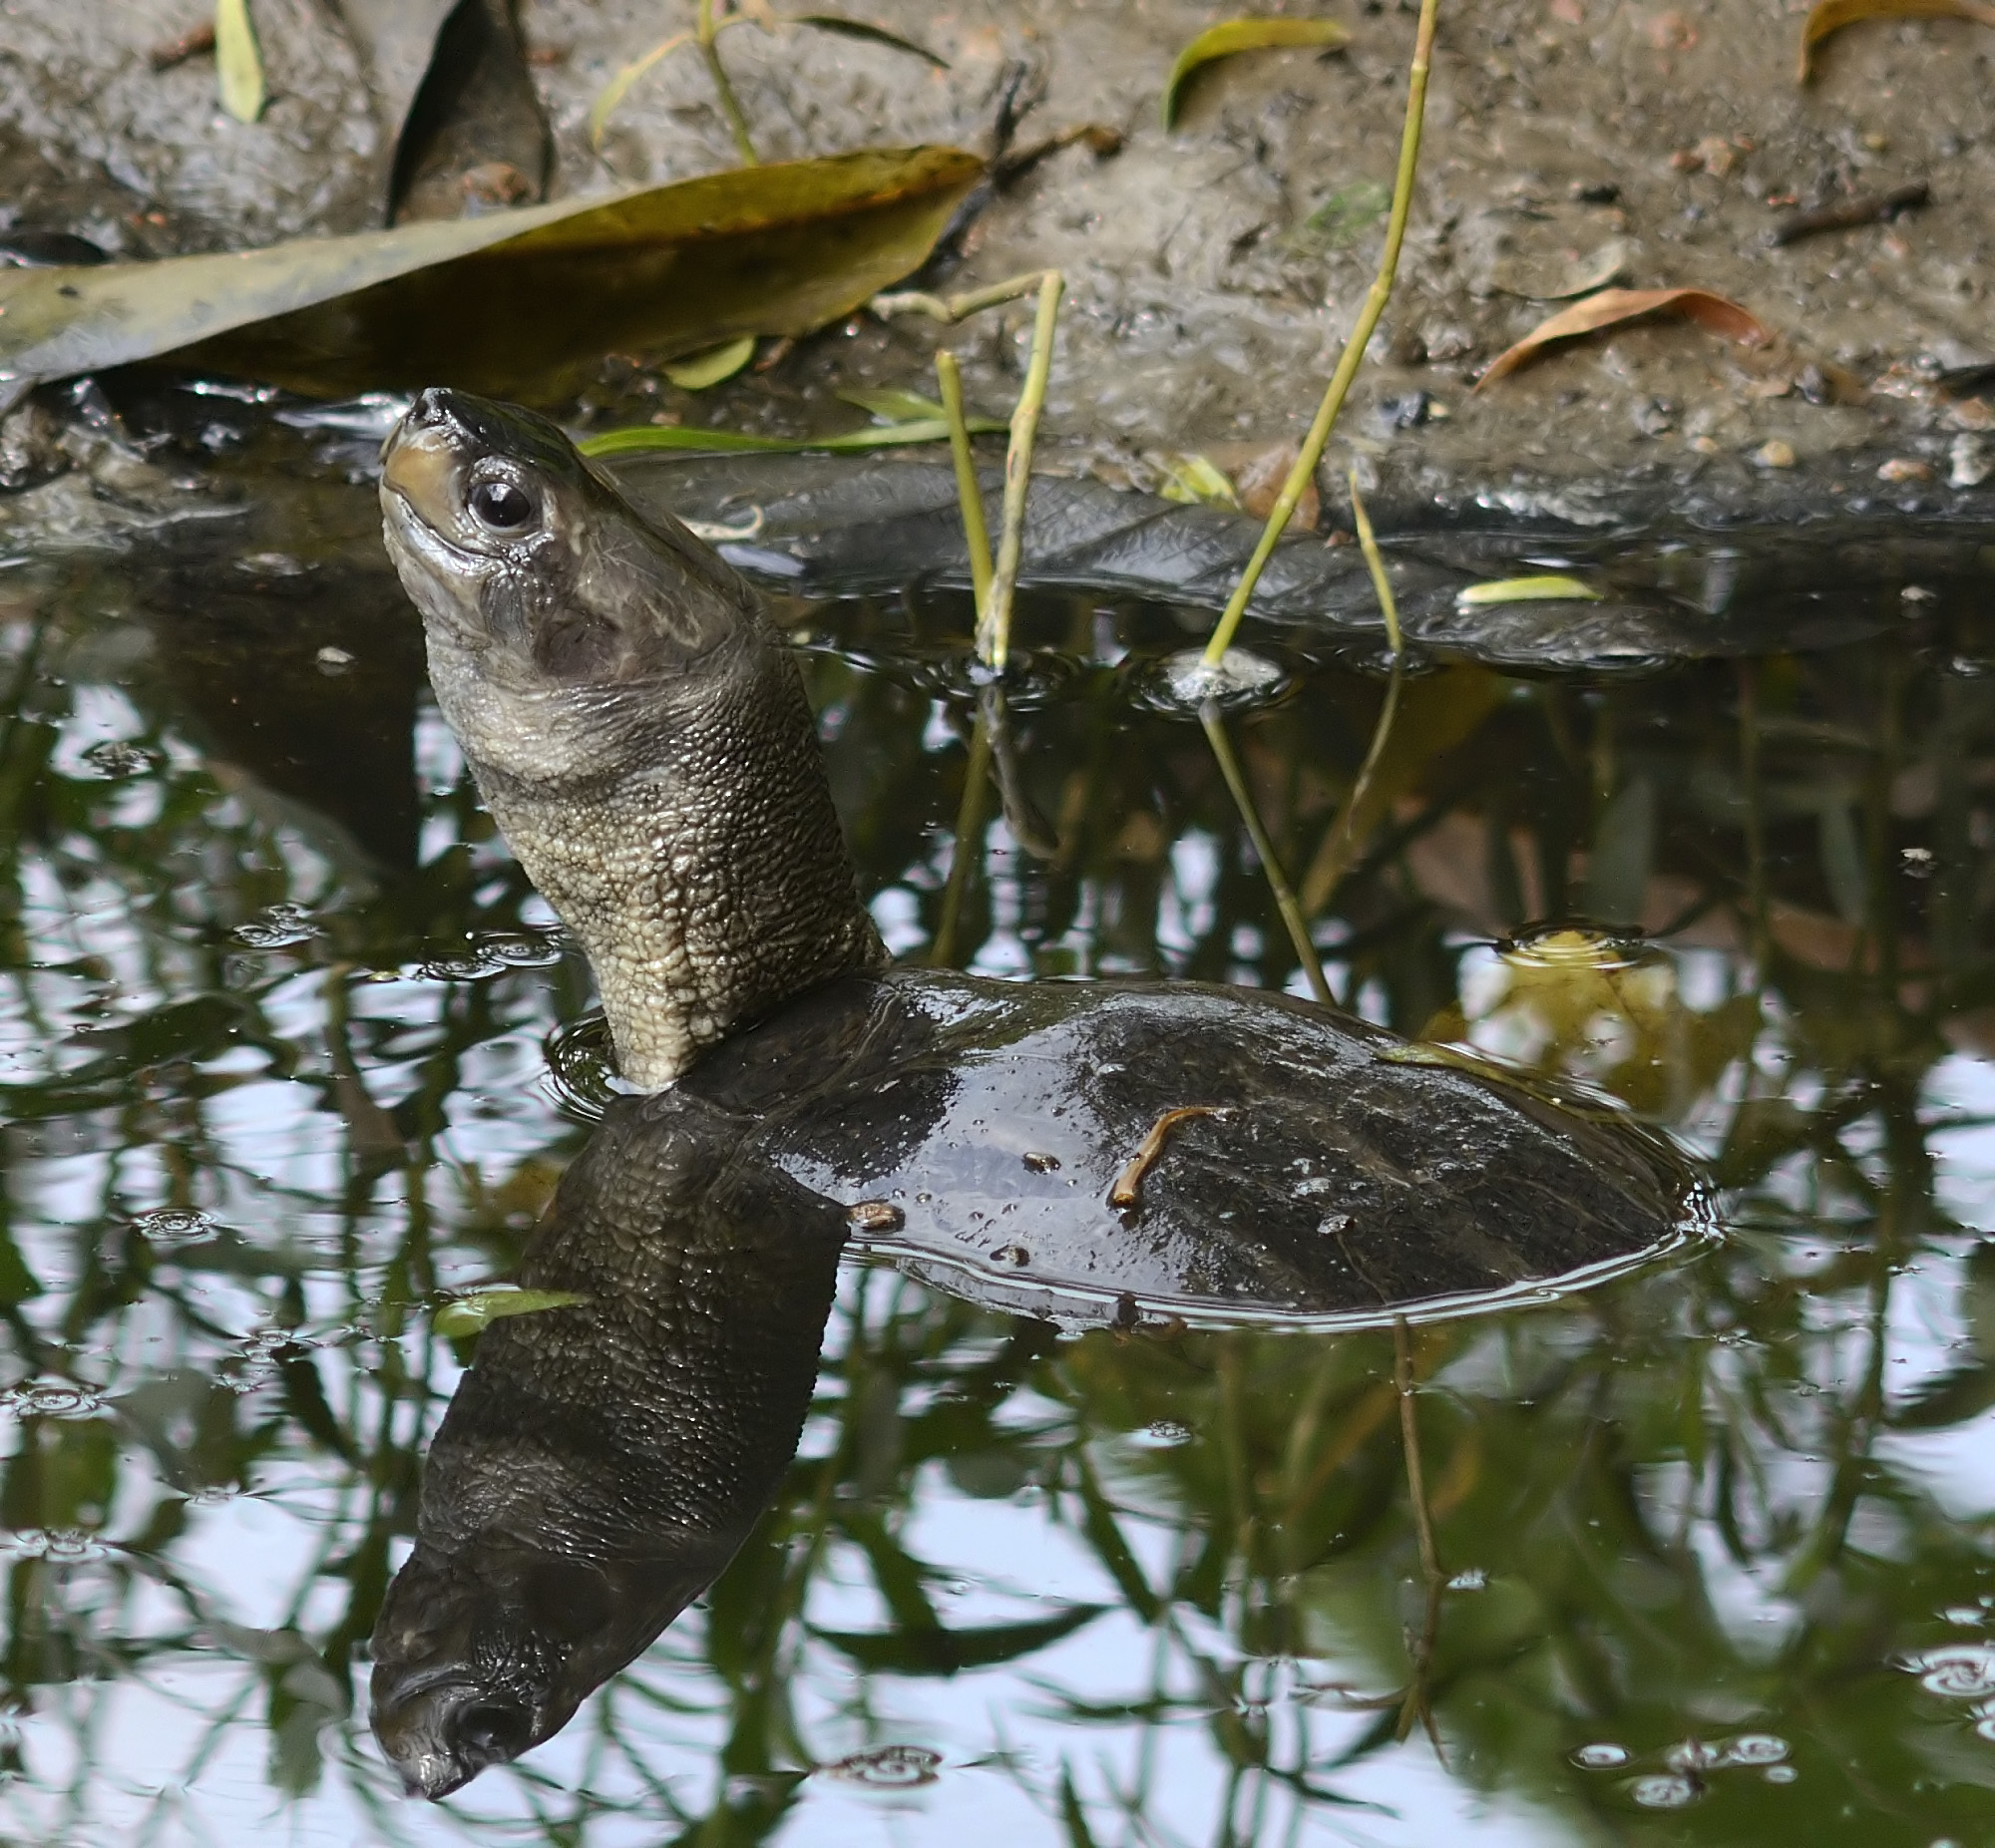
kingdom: Animalia
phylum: Chordata
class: Testudines
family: Geoemydidae
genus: Melanochelys
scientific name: Melanochelys trijuga
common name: Indian black turtle
